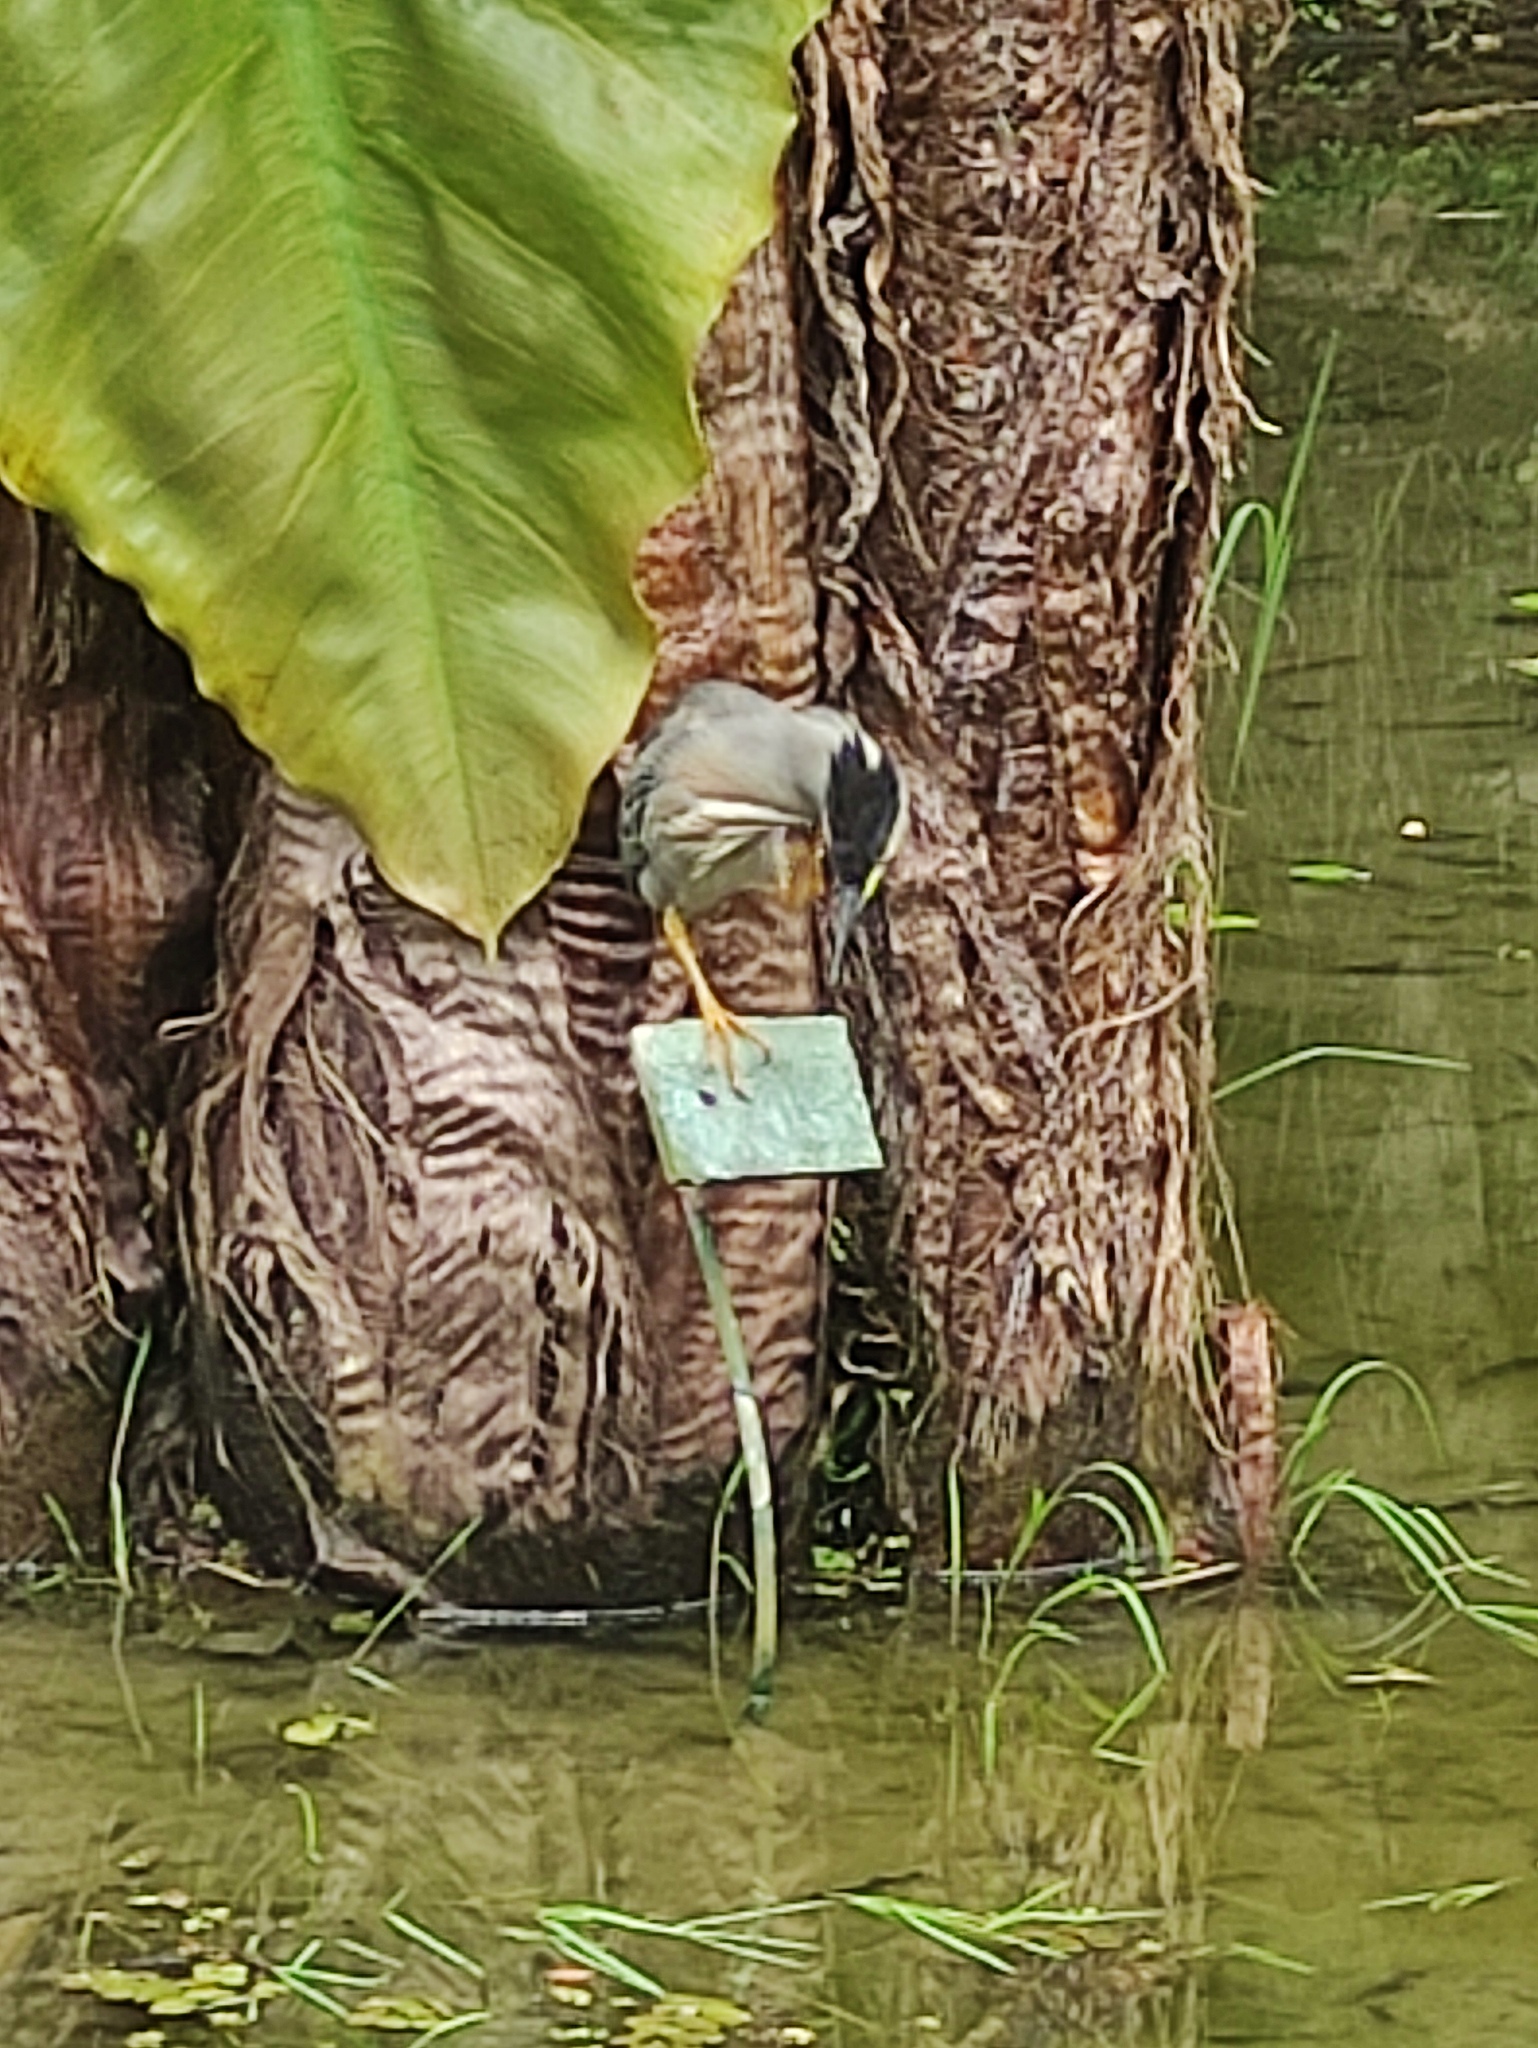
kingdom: Animalia
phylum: Chordata
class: Aves
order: Pelecaniformes
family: Ardeidae
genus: Butorides
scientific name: Butorides striata
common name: Striated heron
